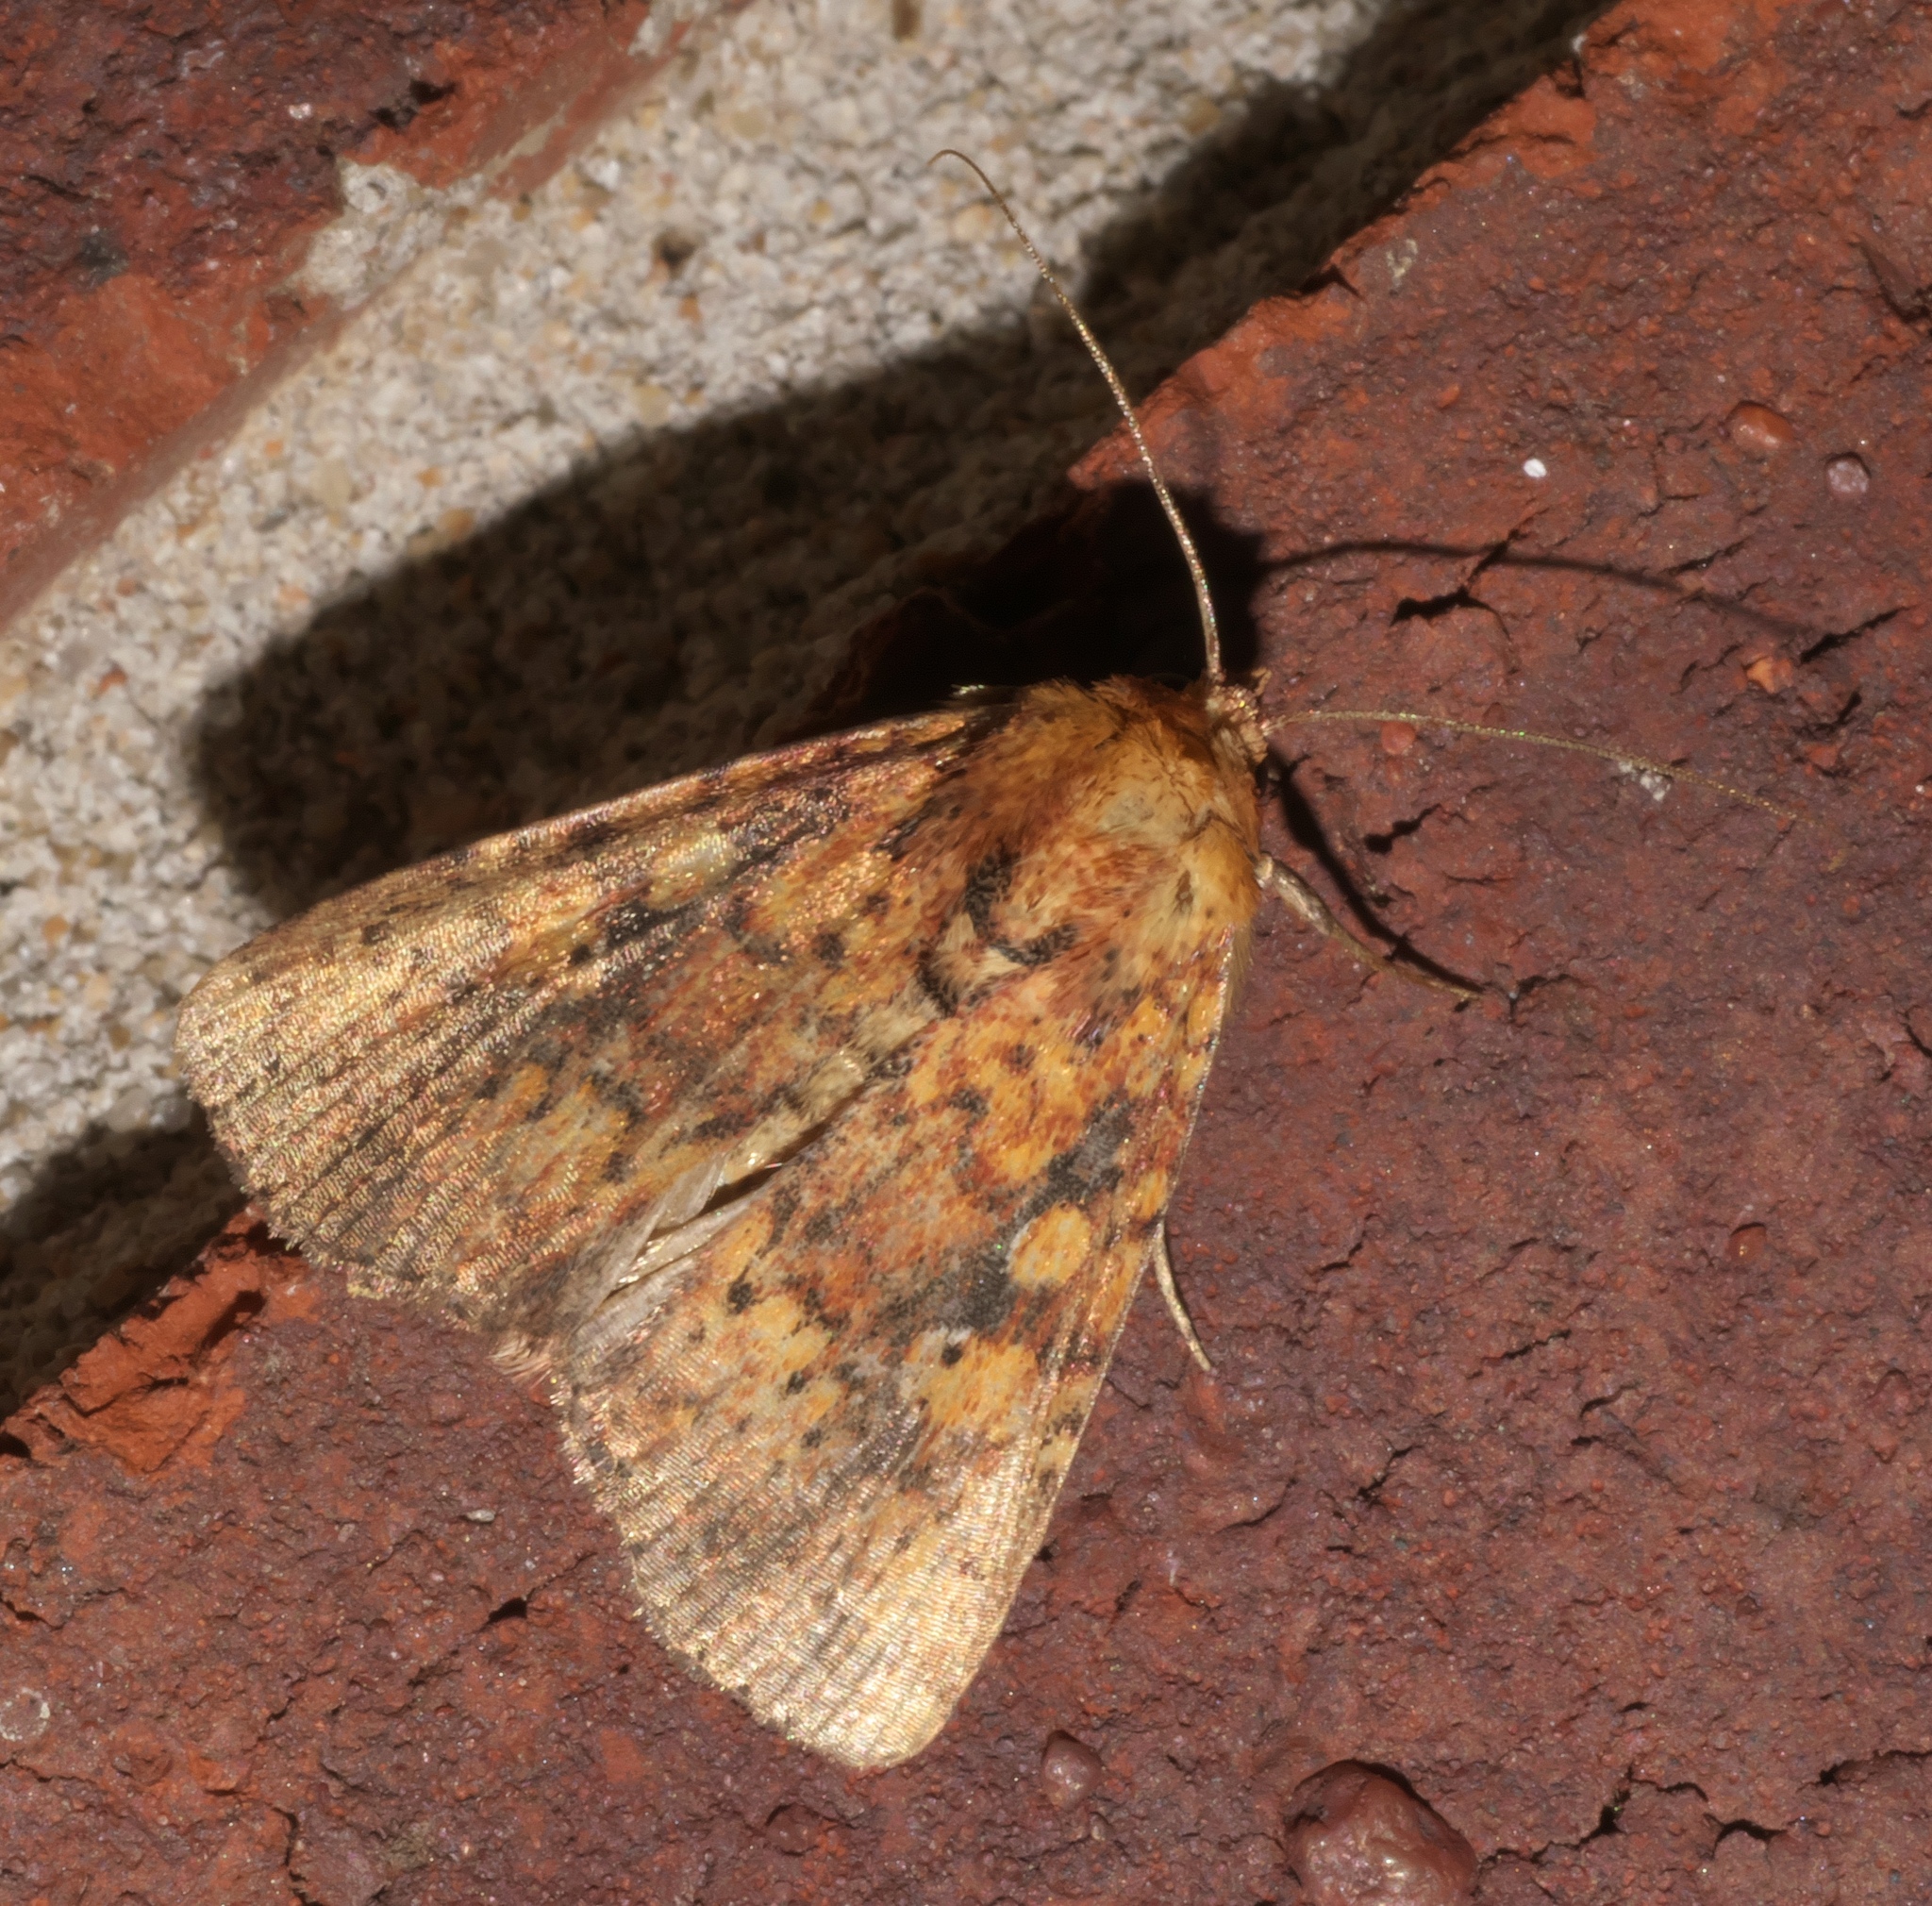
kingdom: Animalia
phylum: Arthropoda
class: Insecta
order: Lepidoptera
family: Noctuidae
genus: Perigea
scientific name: Perigea xanthioides
